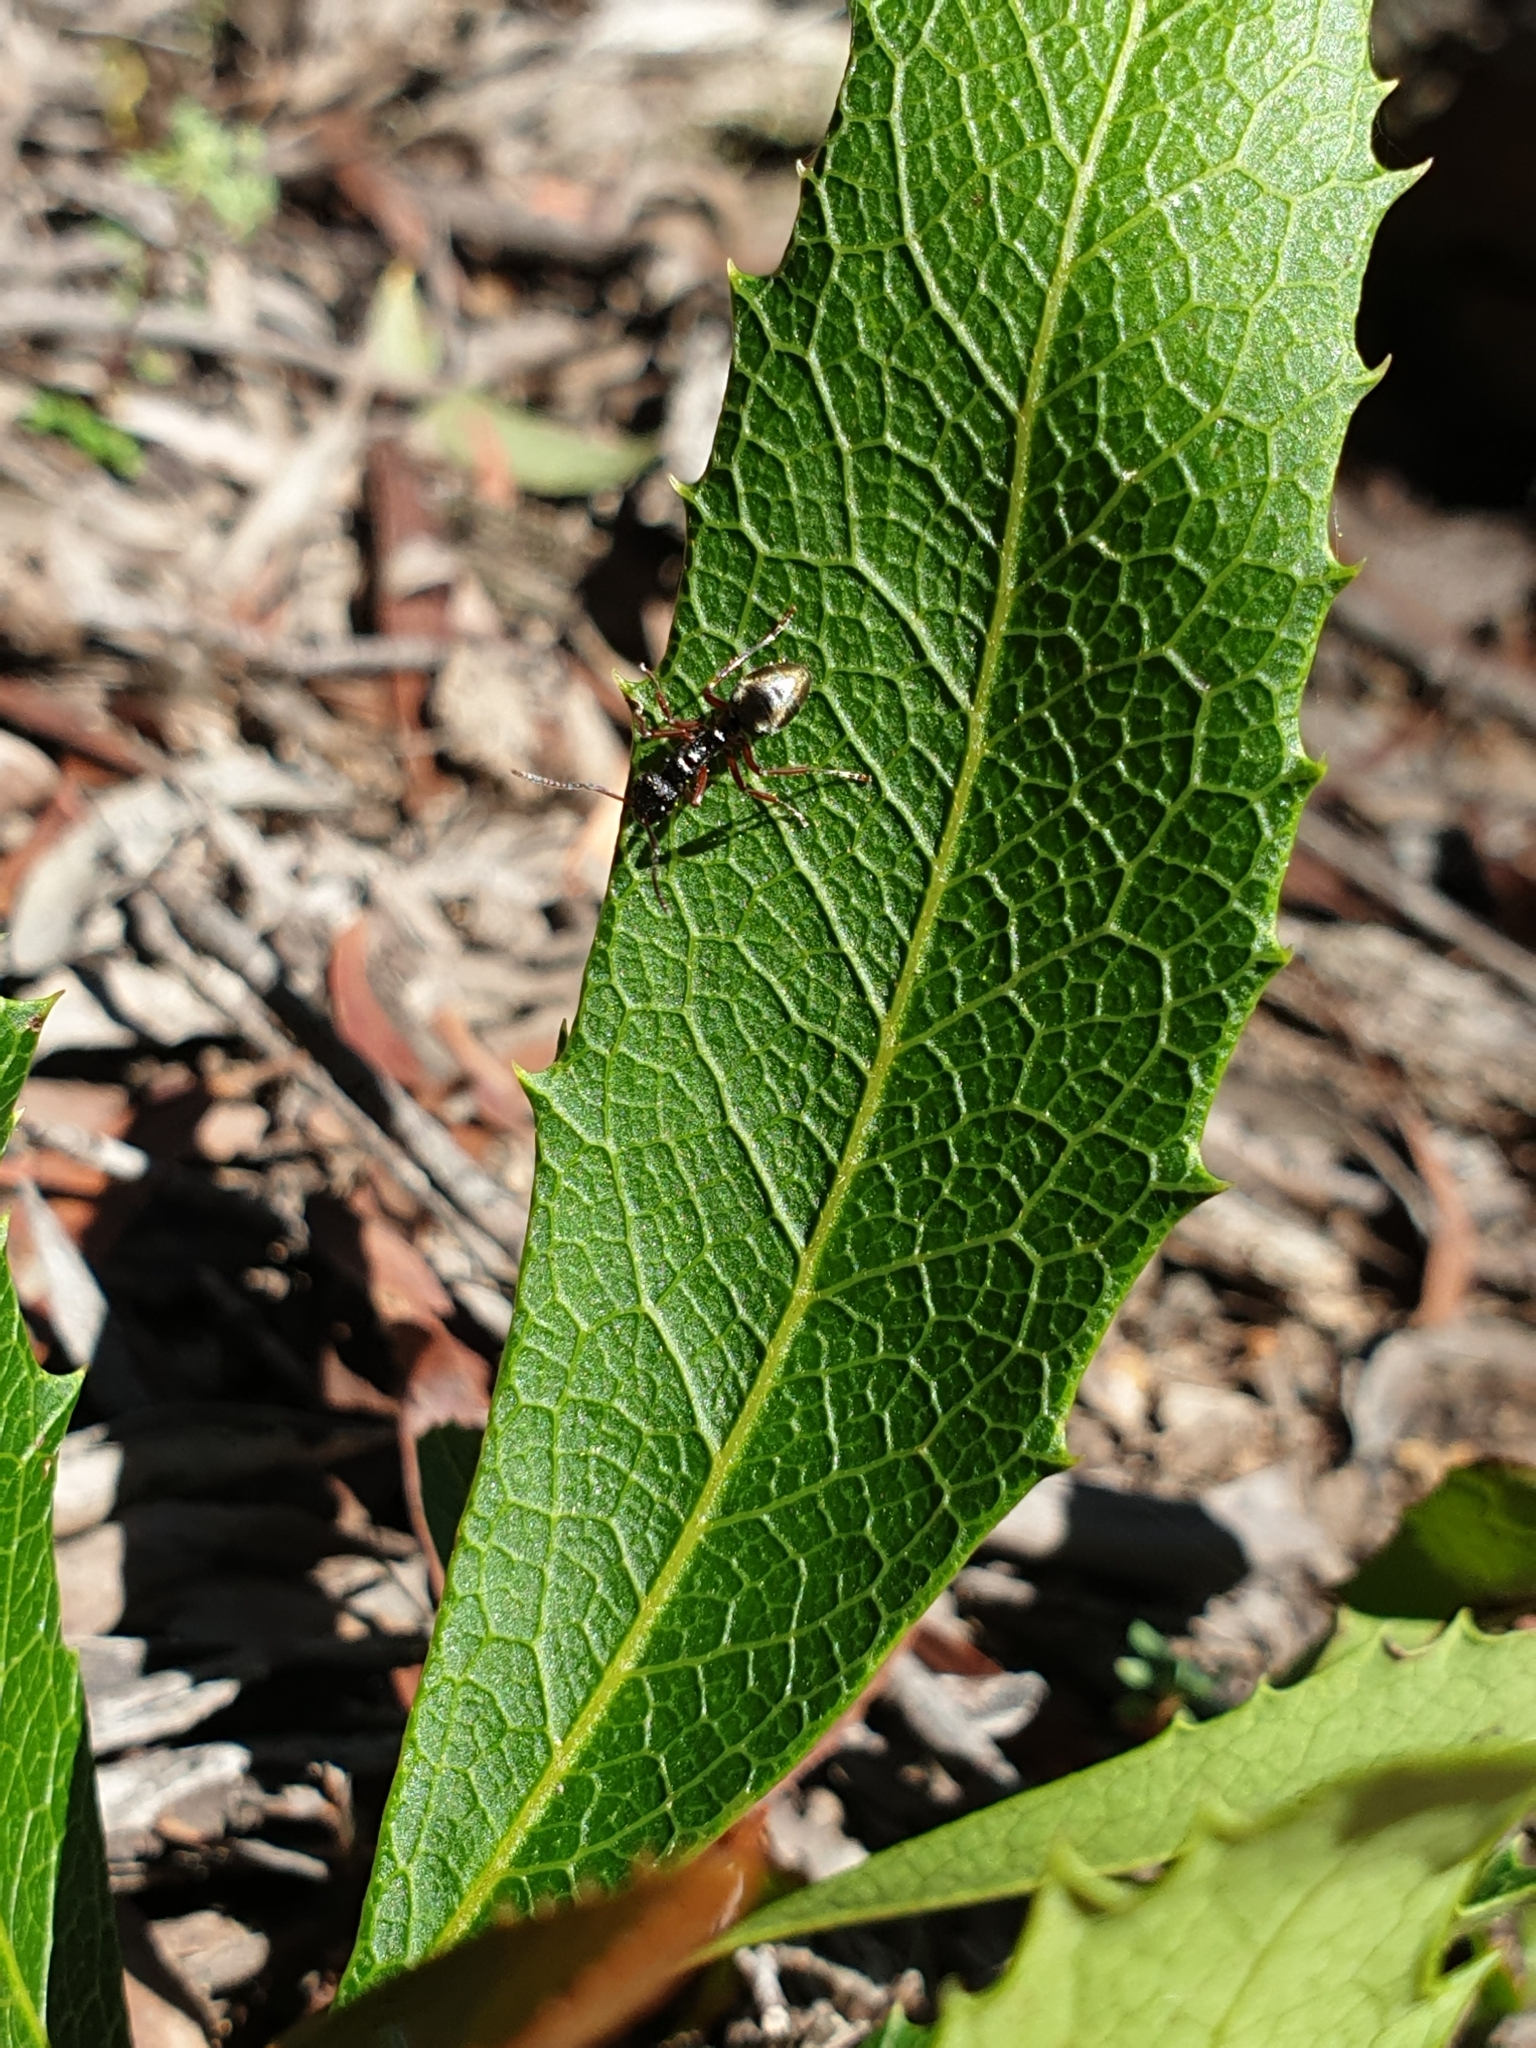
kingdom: Animalia
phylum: Arthropoda
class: Insecta
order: Hymenoptera
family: Formicidae
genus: Dolichoderus
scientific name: Dolichoderus doriae
